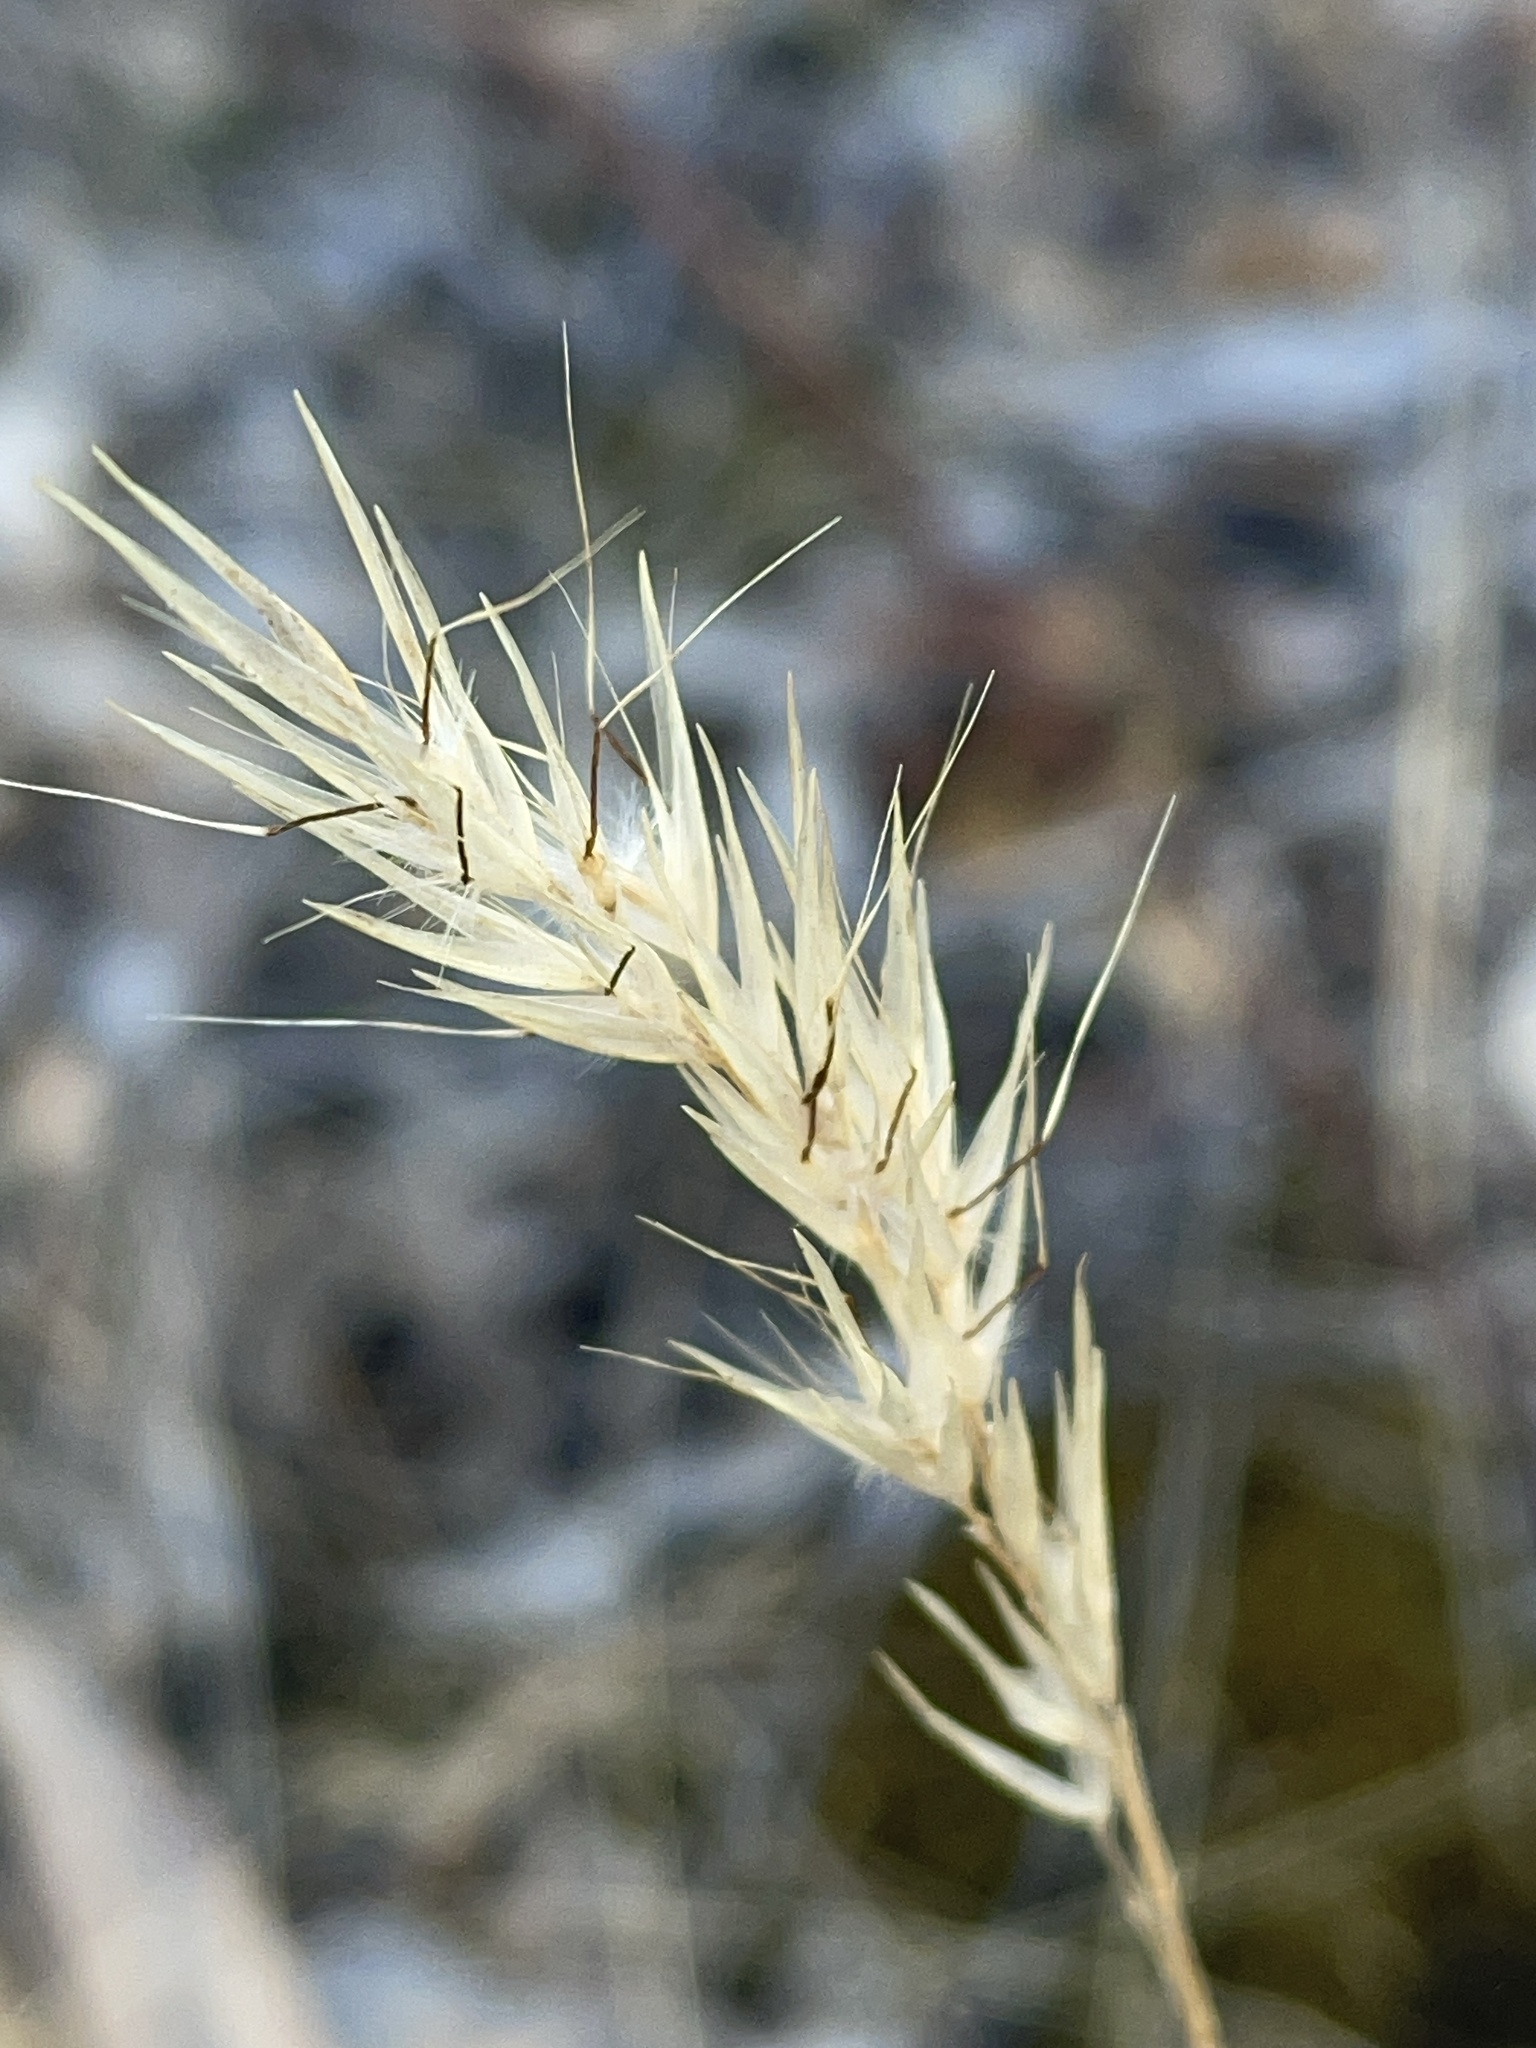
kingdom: Plantae
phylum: Tracheophyta
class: Liliopsida
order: Poales
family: Poaceae
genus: Rytidosperma
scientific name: Rytidosperma setaceum
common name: Small-flower wallaby grass
